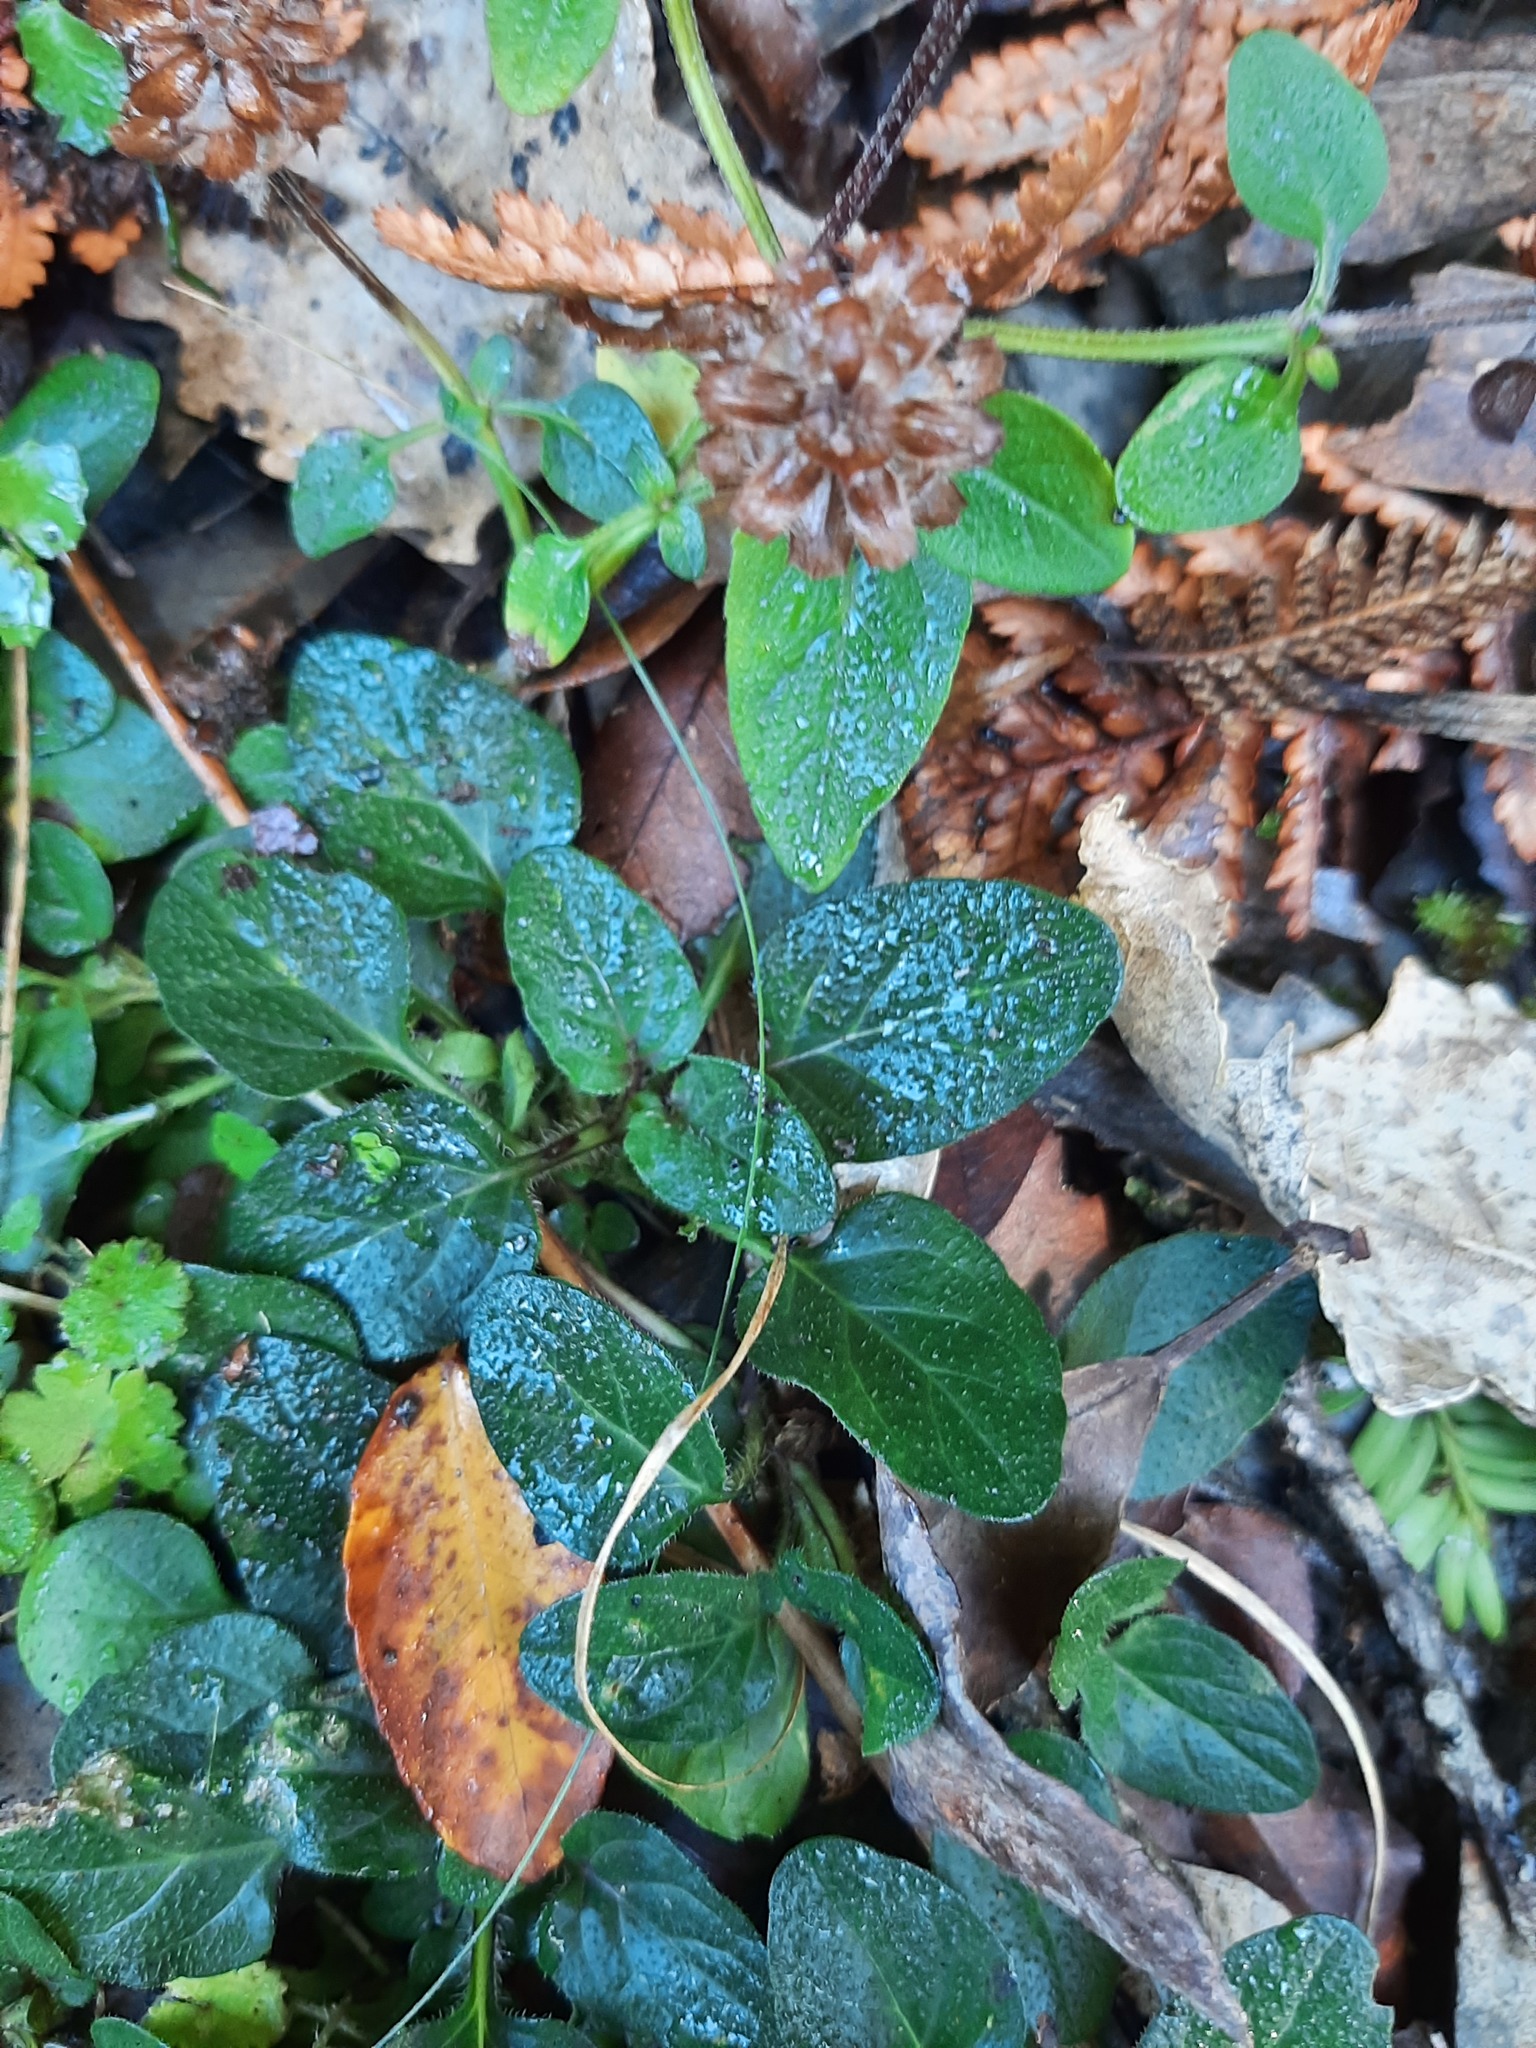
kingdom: Plantae
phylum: Tracheophyta
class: Magnoliopsida
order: Lamiales
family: Lamiaceae
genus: Prunella
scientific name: Prunella vulgaris
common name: Heal-all
